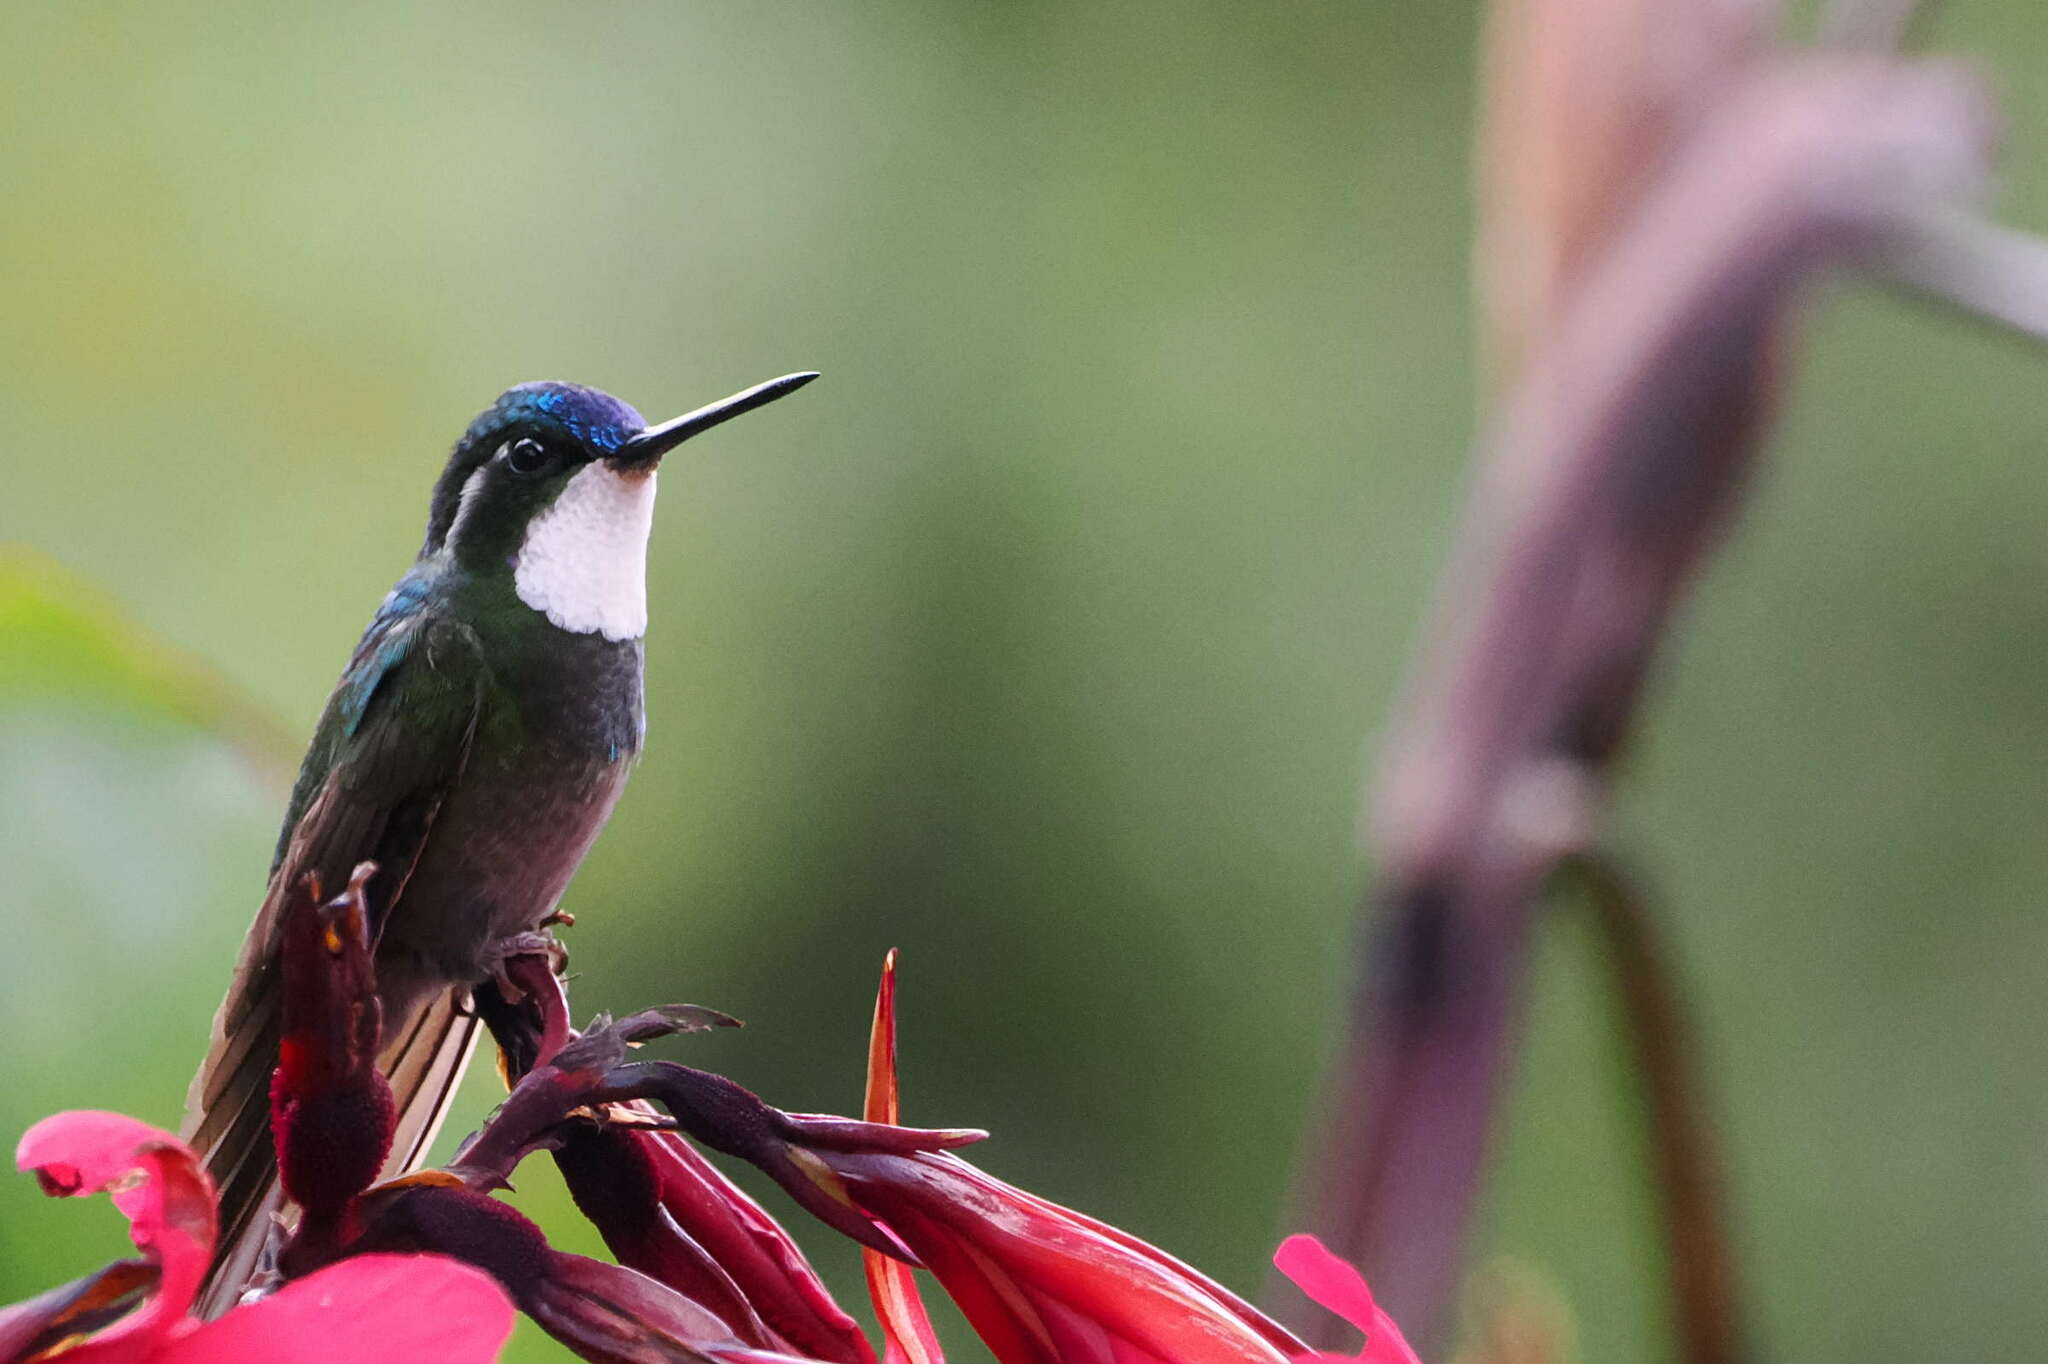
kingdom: Animalia
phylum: Chordata
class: Aves
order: Apodiformes
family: Trochilidae
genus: Lampornis
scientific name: Lampornis castaneoventris
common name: White-throated mountain-gem
